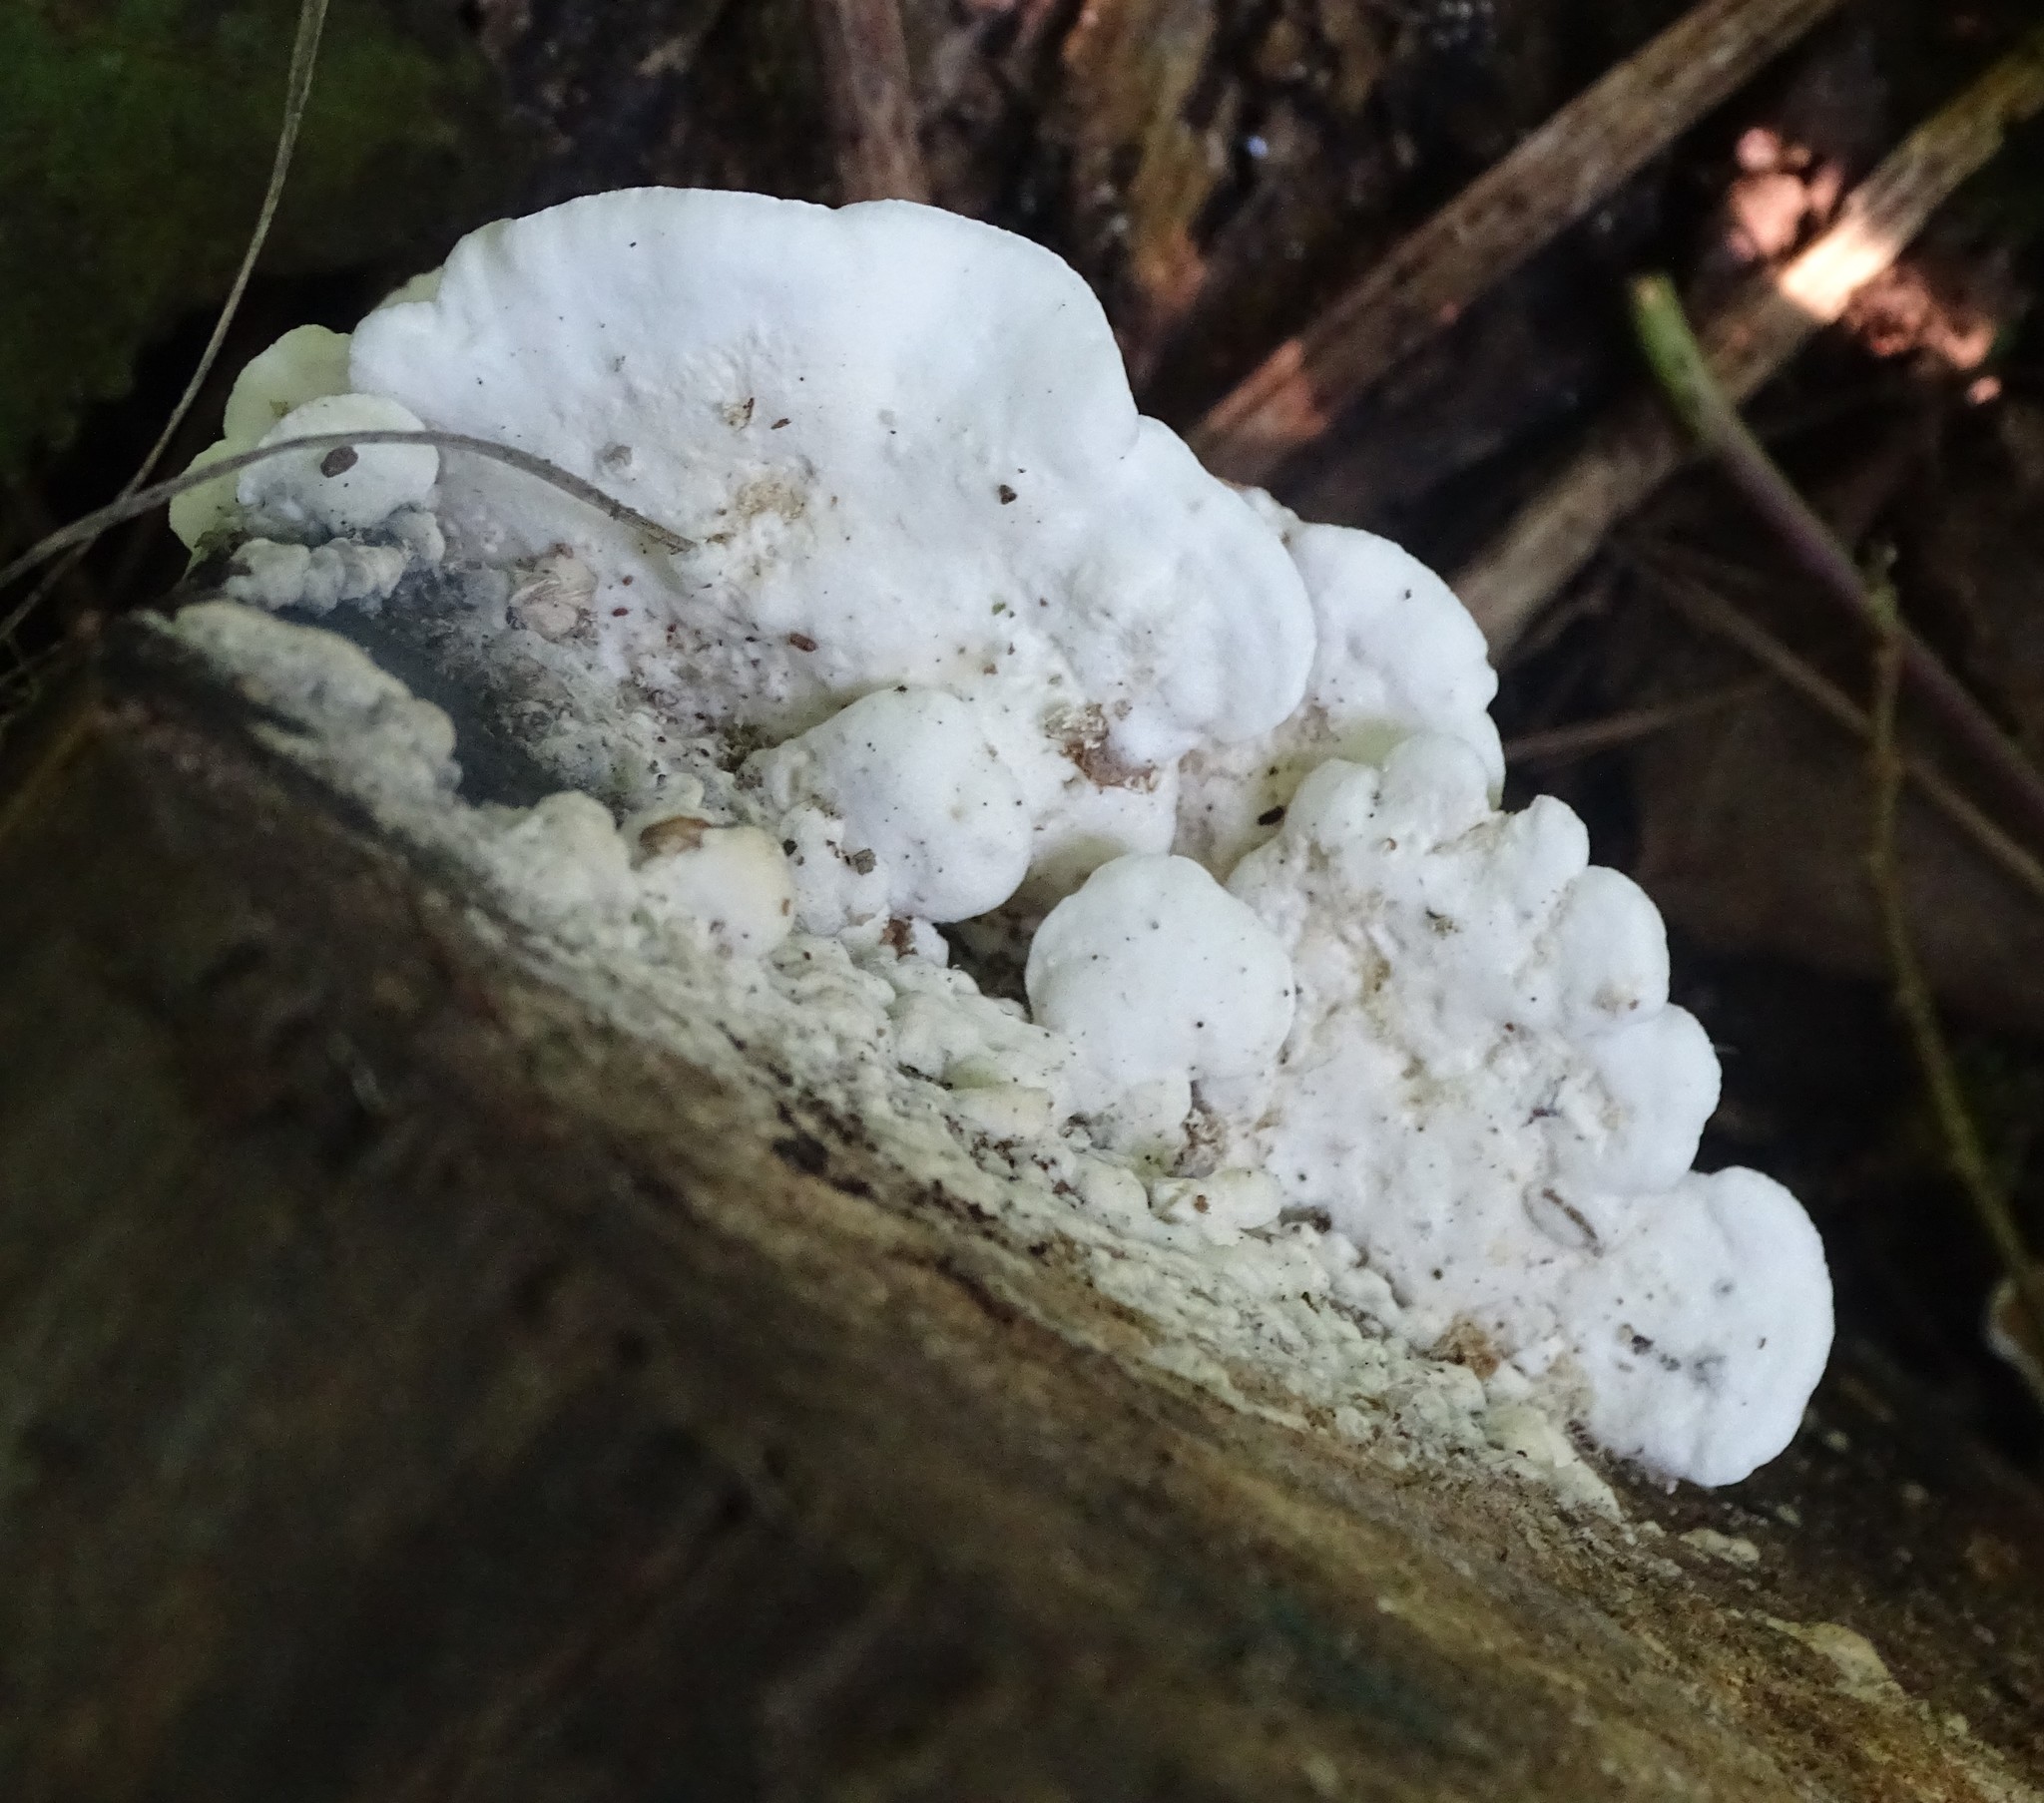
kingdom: Fungi
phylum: Basidiomycota
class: Agaricomycetes
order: Polyporales
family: Irpicaceae
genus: Vitreoporus
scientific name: Vitreoporus dichrous
